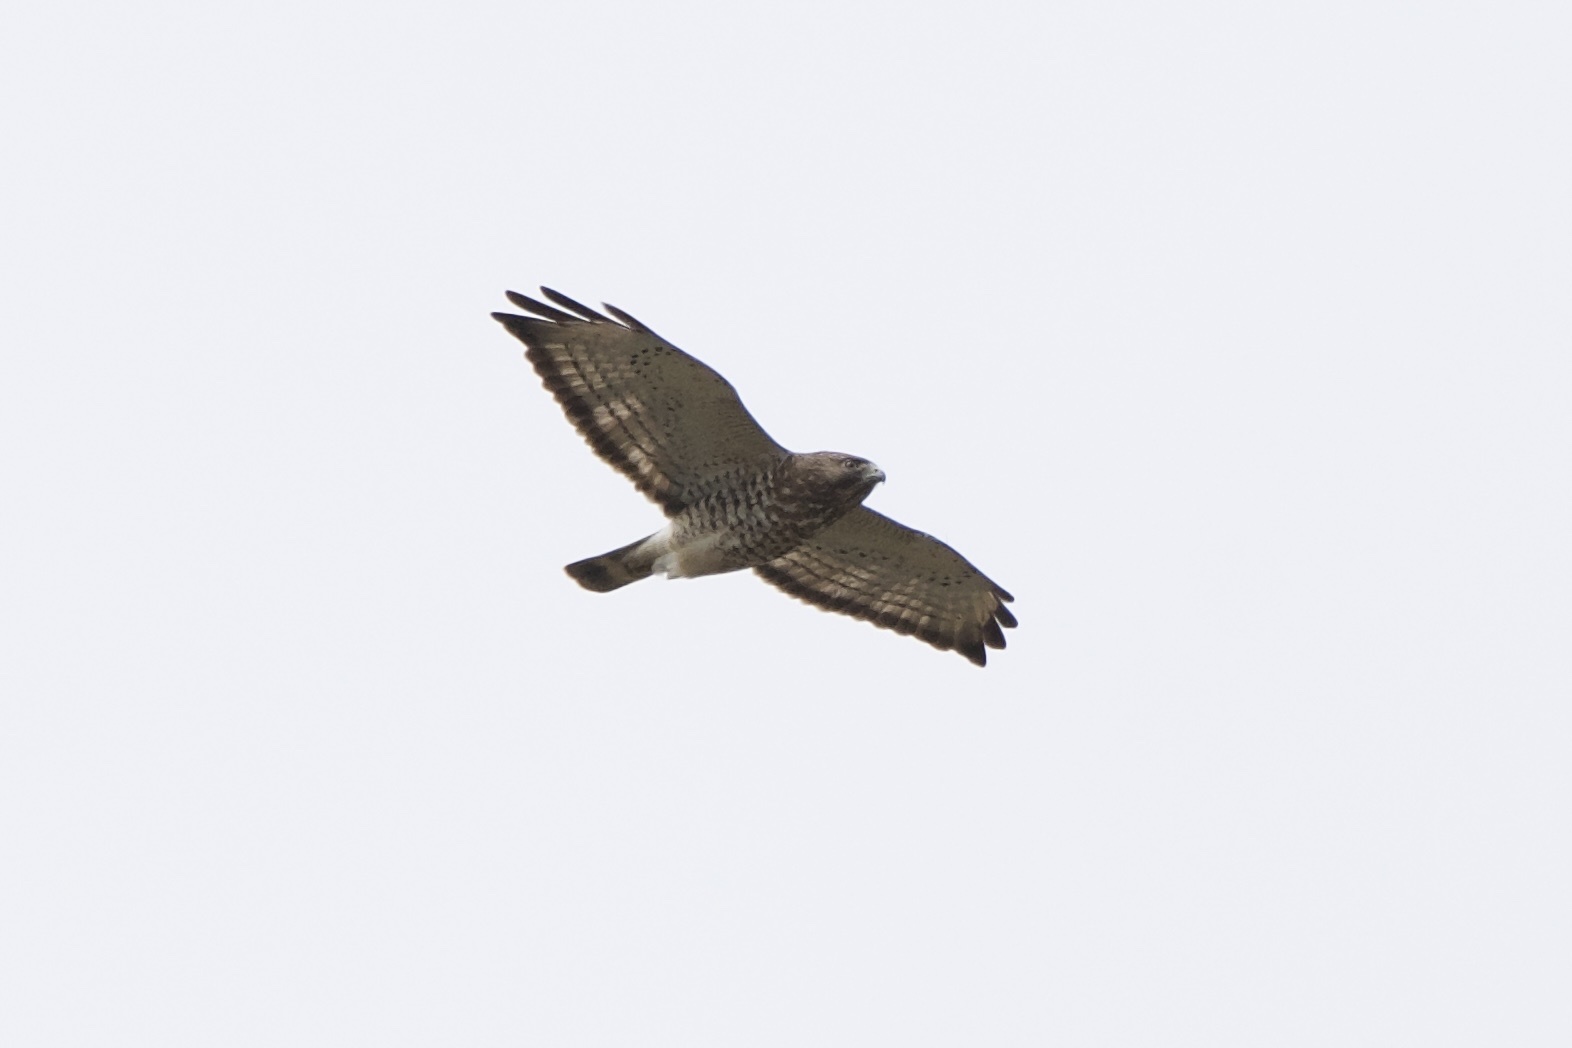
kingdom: Animalia
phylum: Chordata
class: Aves
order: Accipitriformes
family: Accipitridae
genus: Buteo
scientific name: Buteo platypterus
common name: Broad-winged hawk
